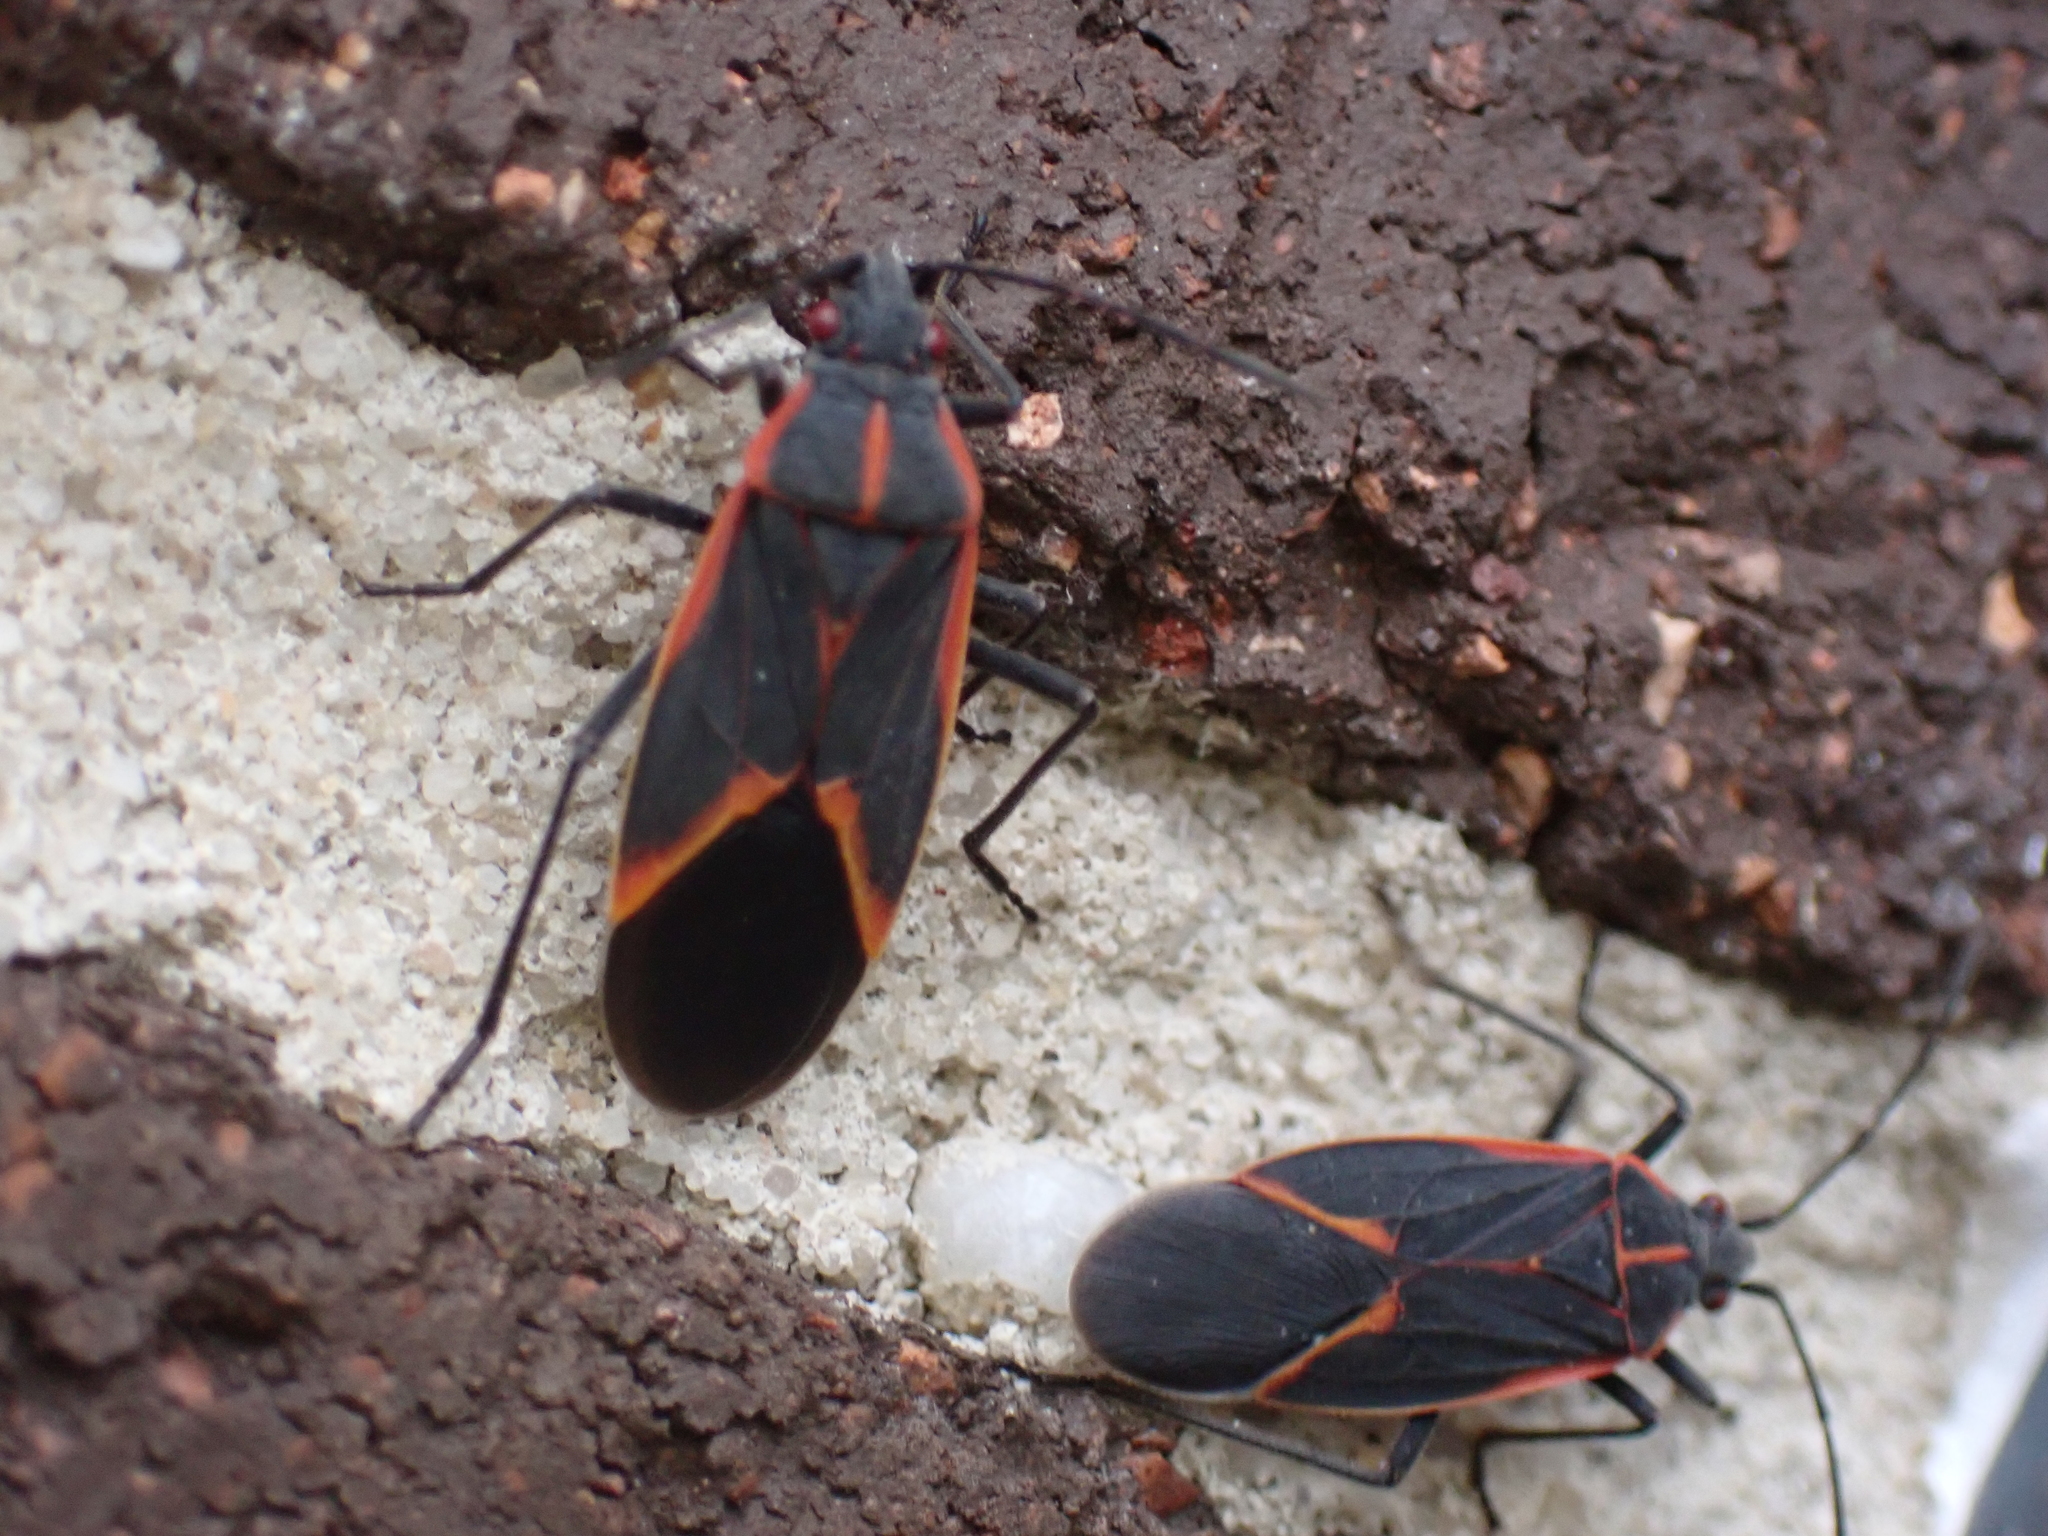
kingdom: Animalia
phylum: Arthropoda
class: Insecta
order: Hemiptera
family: Rhopalidae
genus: Boisea
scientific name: Boisea trivittata
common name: Boxelder bug
